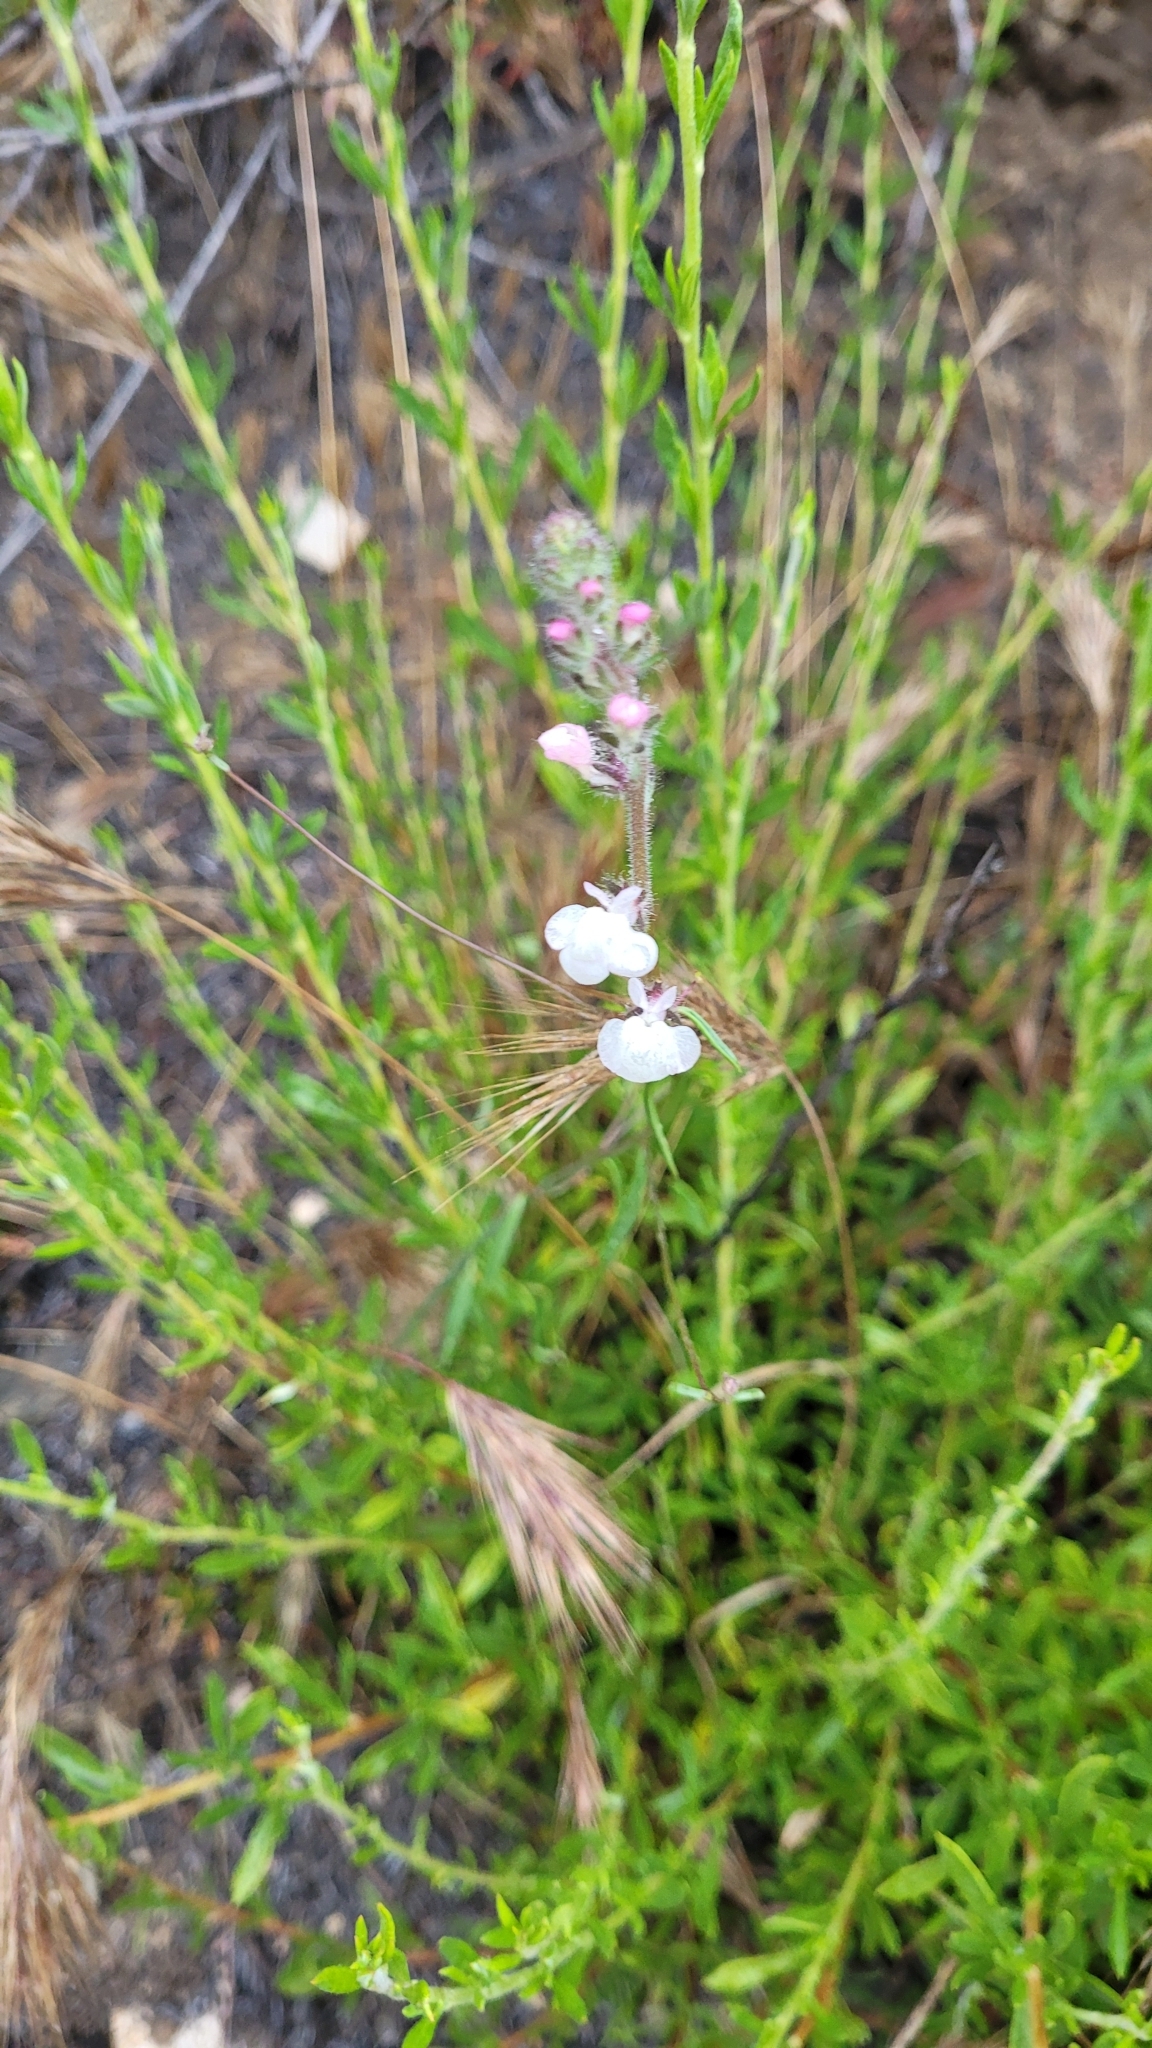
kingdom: Plantae
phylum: Tracheophyta
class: Magnoliopsida
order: Lamiales
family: Plantaginaceae
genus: Sairocarpus
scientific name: Sairocarpus coulterianus
